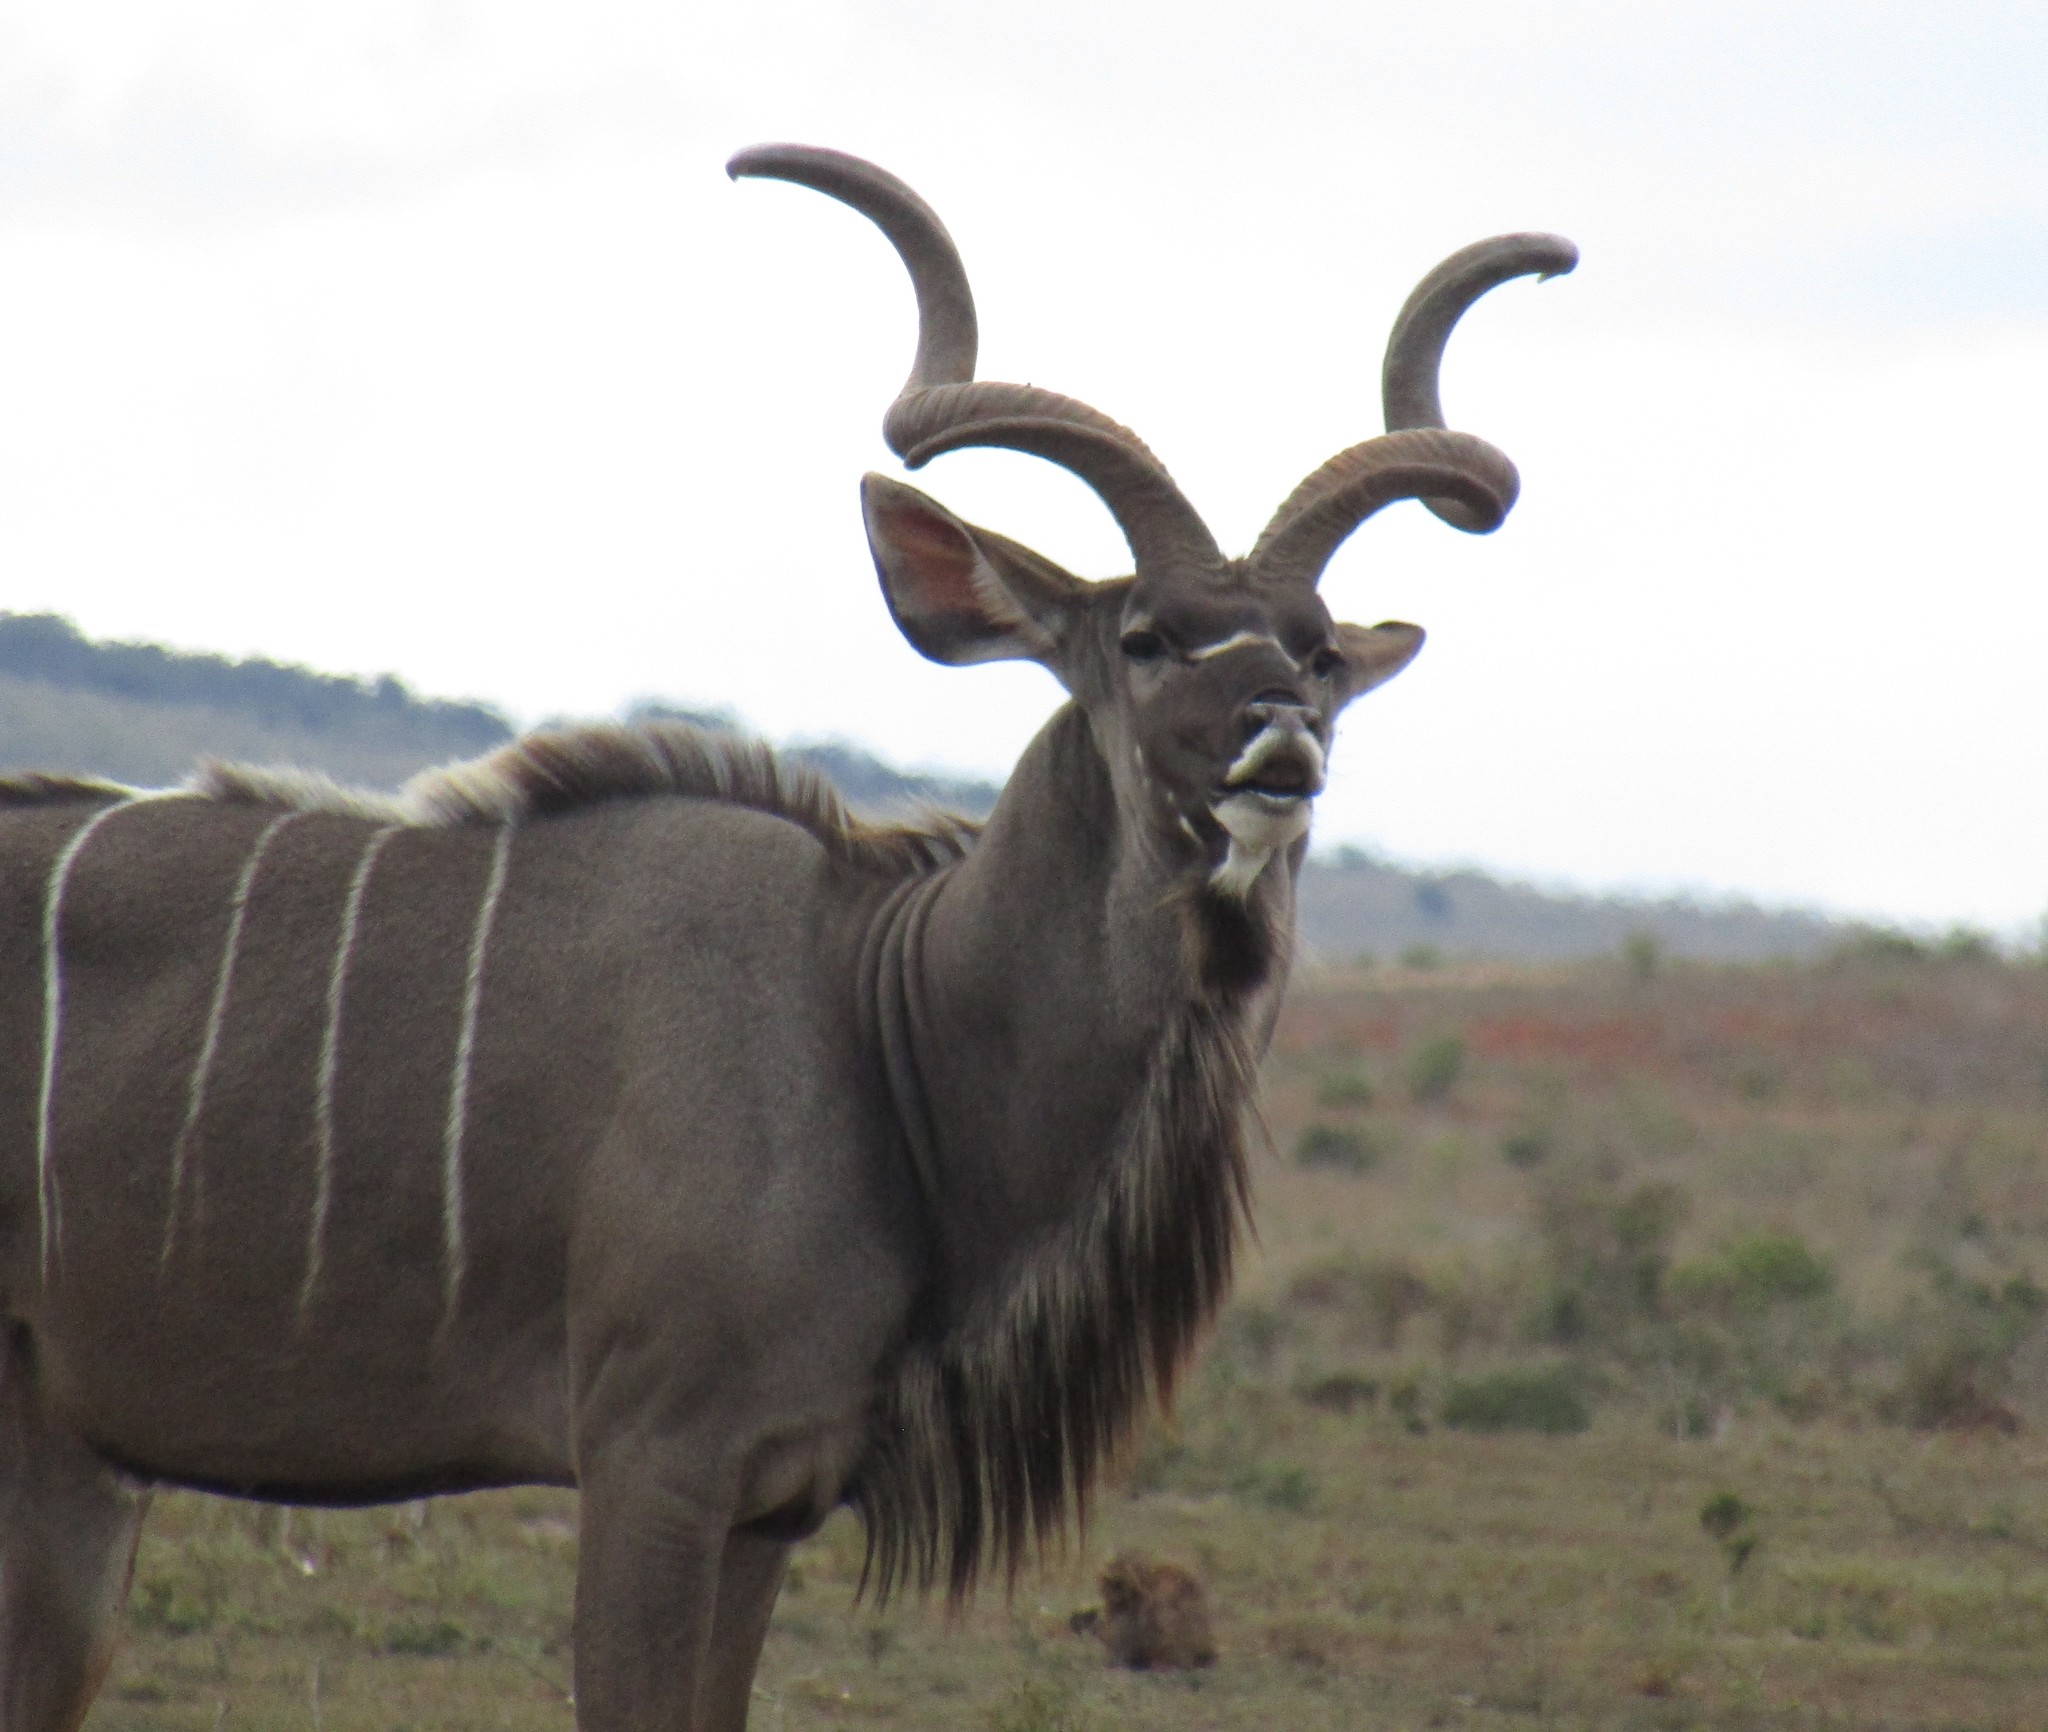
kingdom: Animalia
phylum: Chordata
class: Mammalia
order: Artiodactyla
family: Bovidae
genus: Tragelaphus
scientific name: Tragelaphus strepsiceros
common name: Greater kudu
